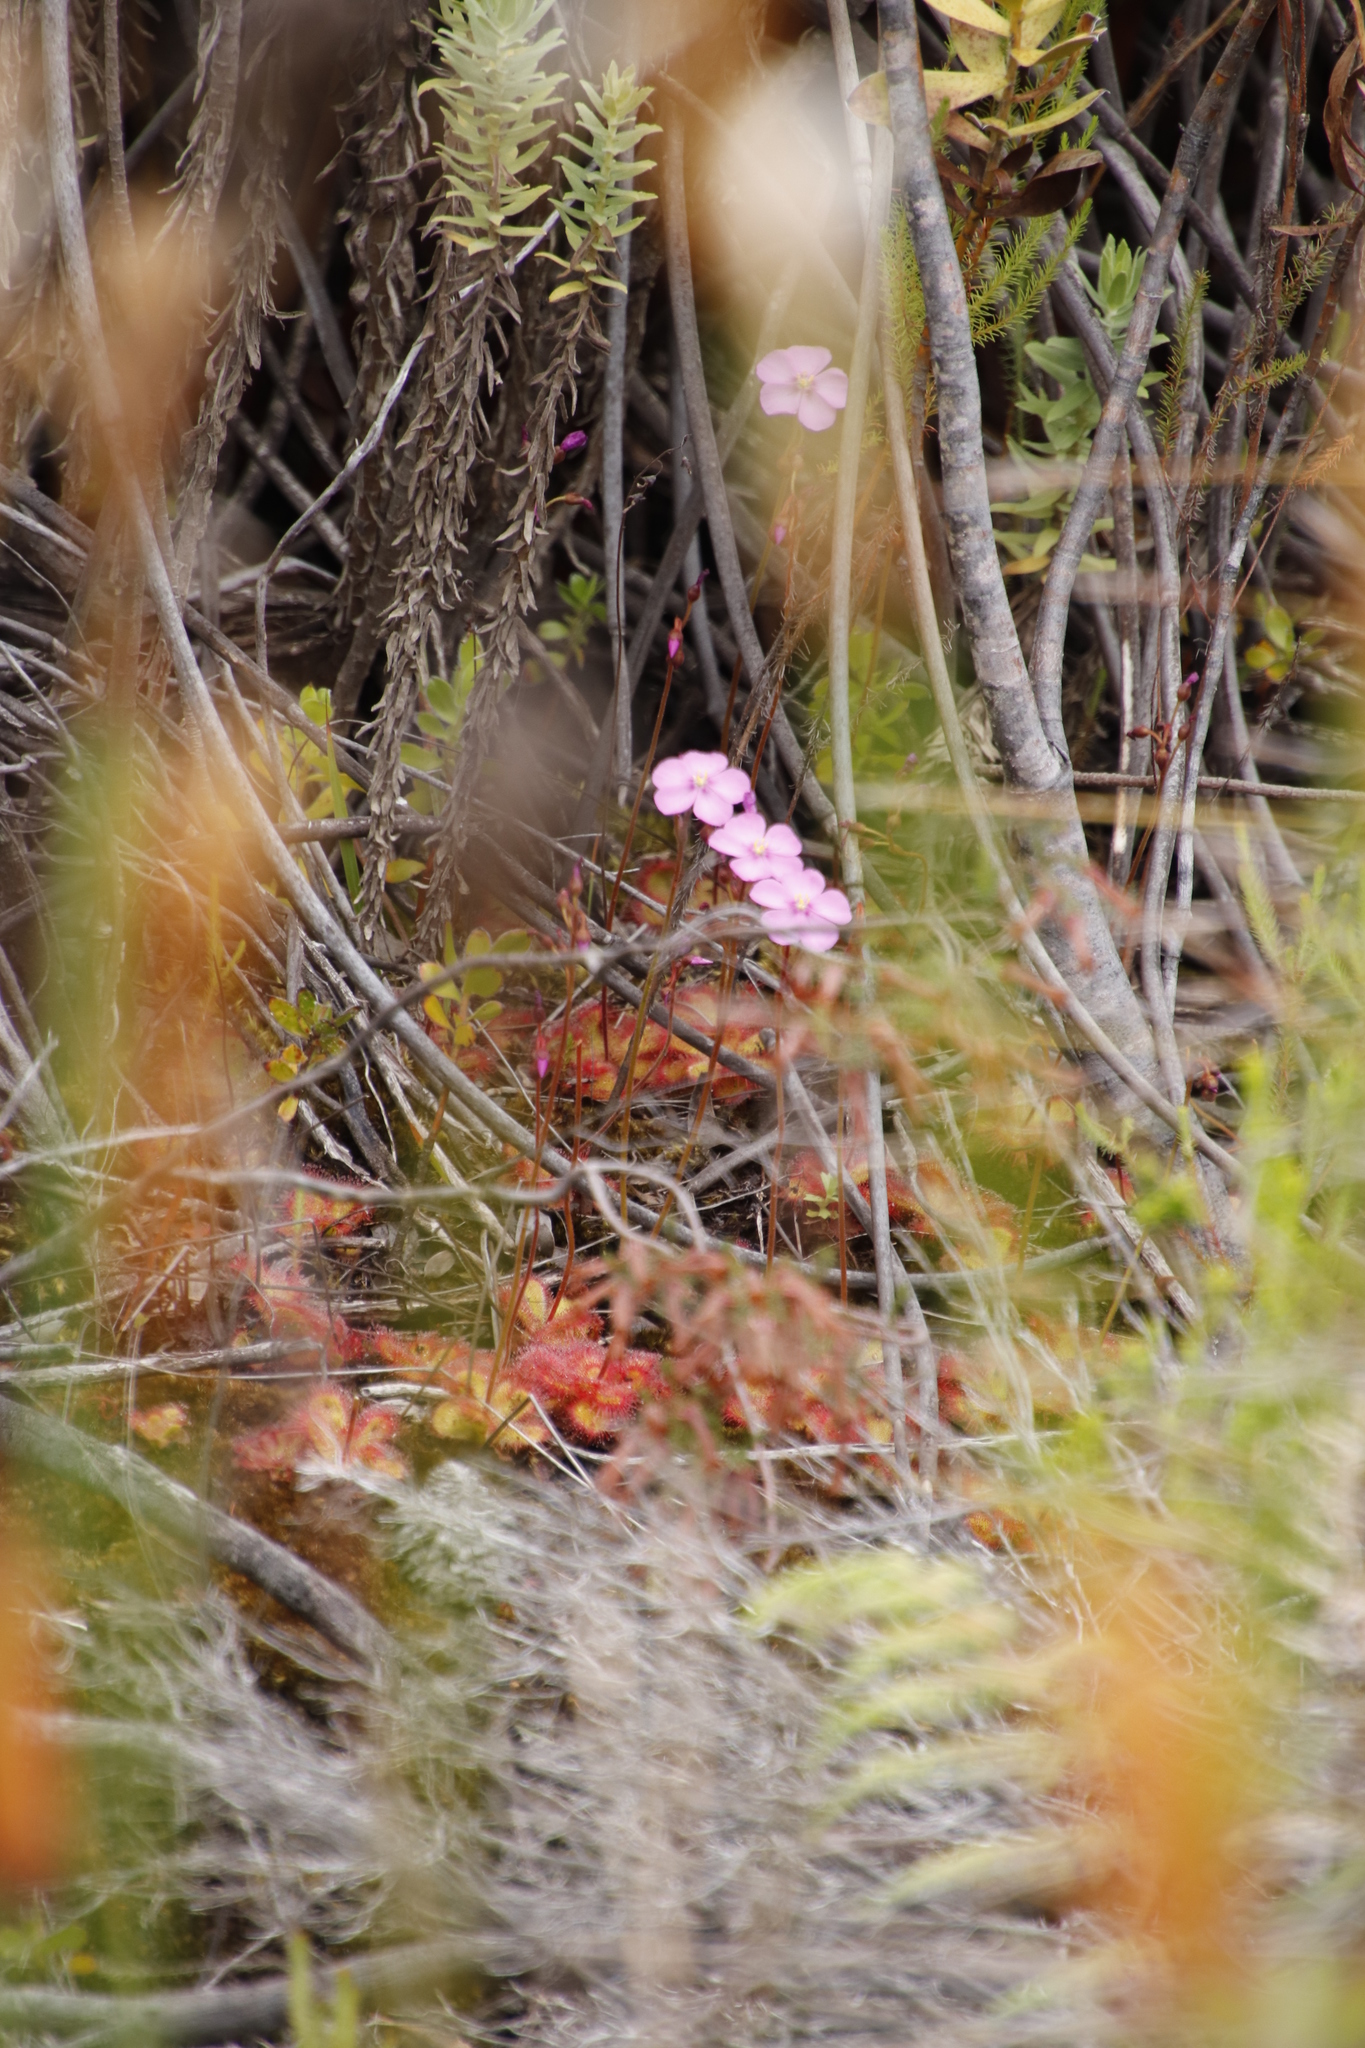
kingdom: Plantae
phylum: Tracheophyta
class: Magnoliopsida
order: Caryophyllales
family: Droseraceae
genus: Drosera
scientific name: Drosera cuneifolia
